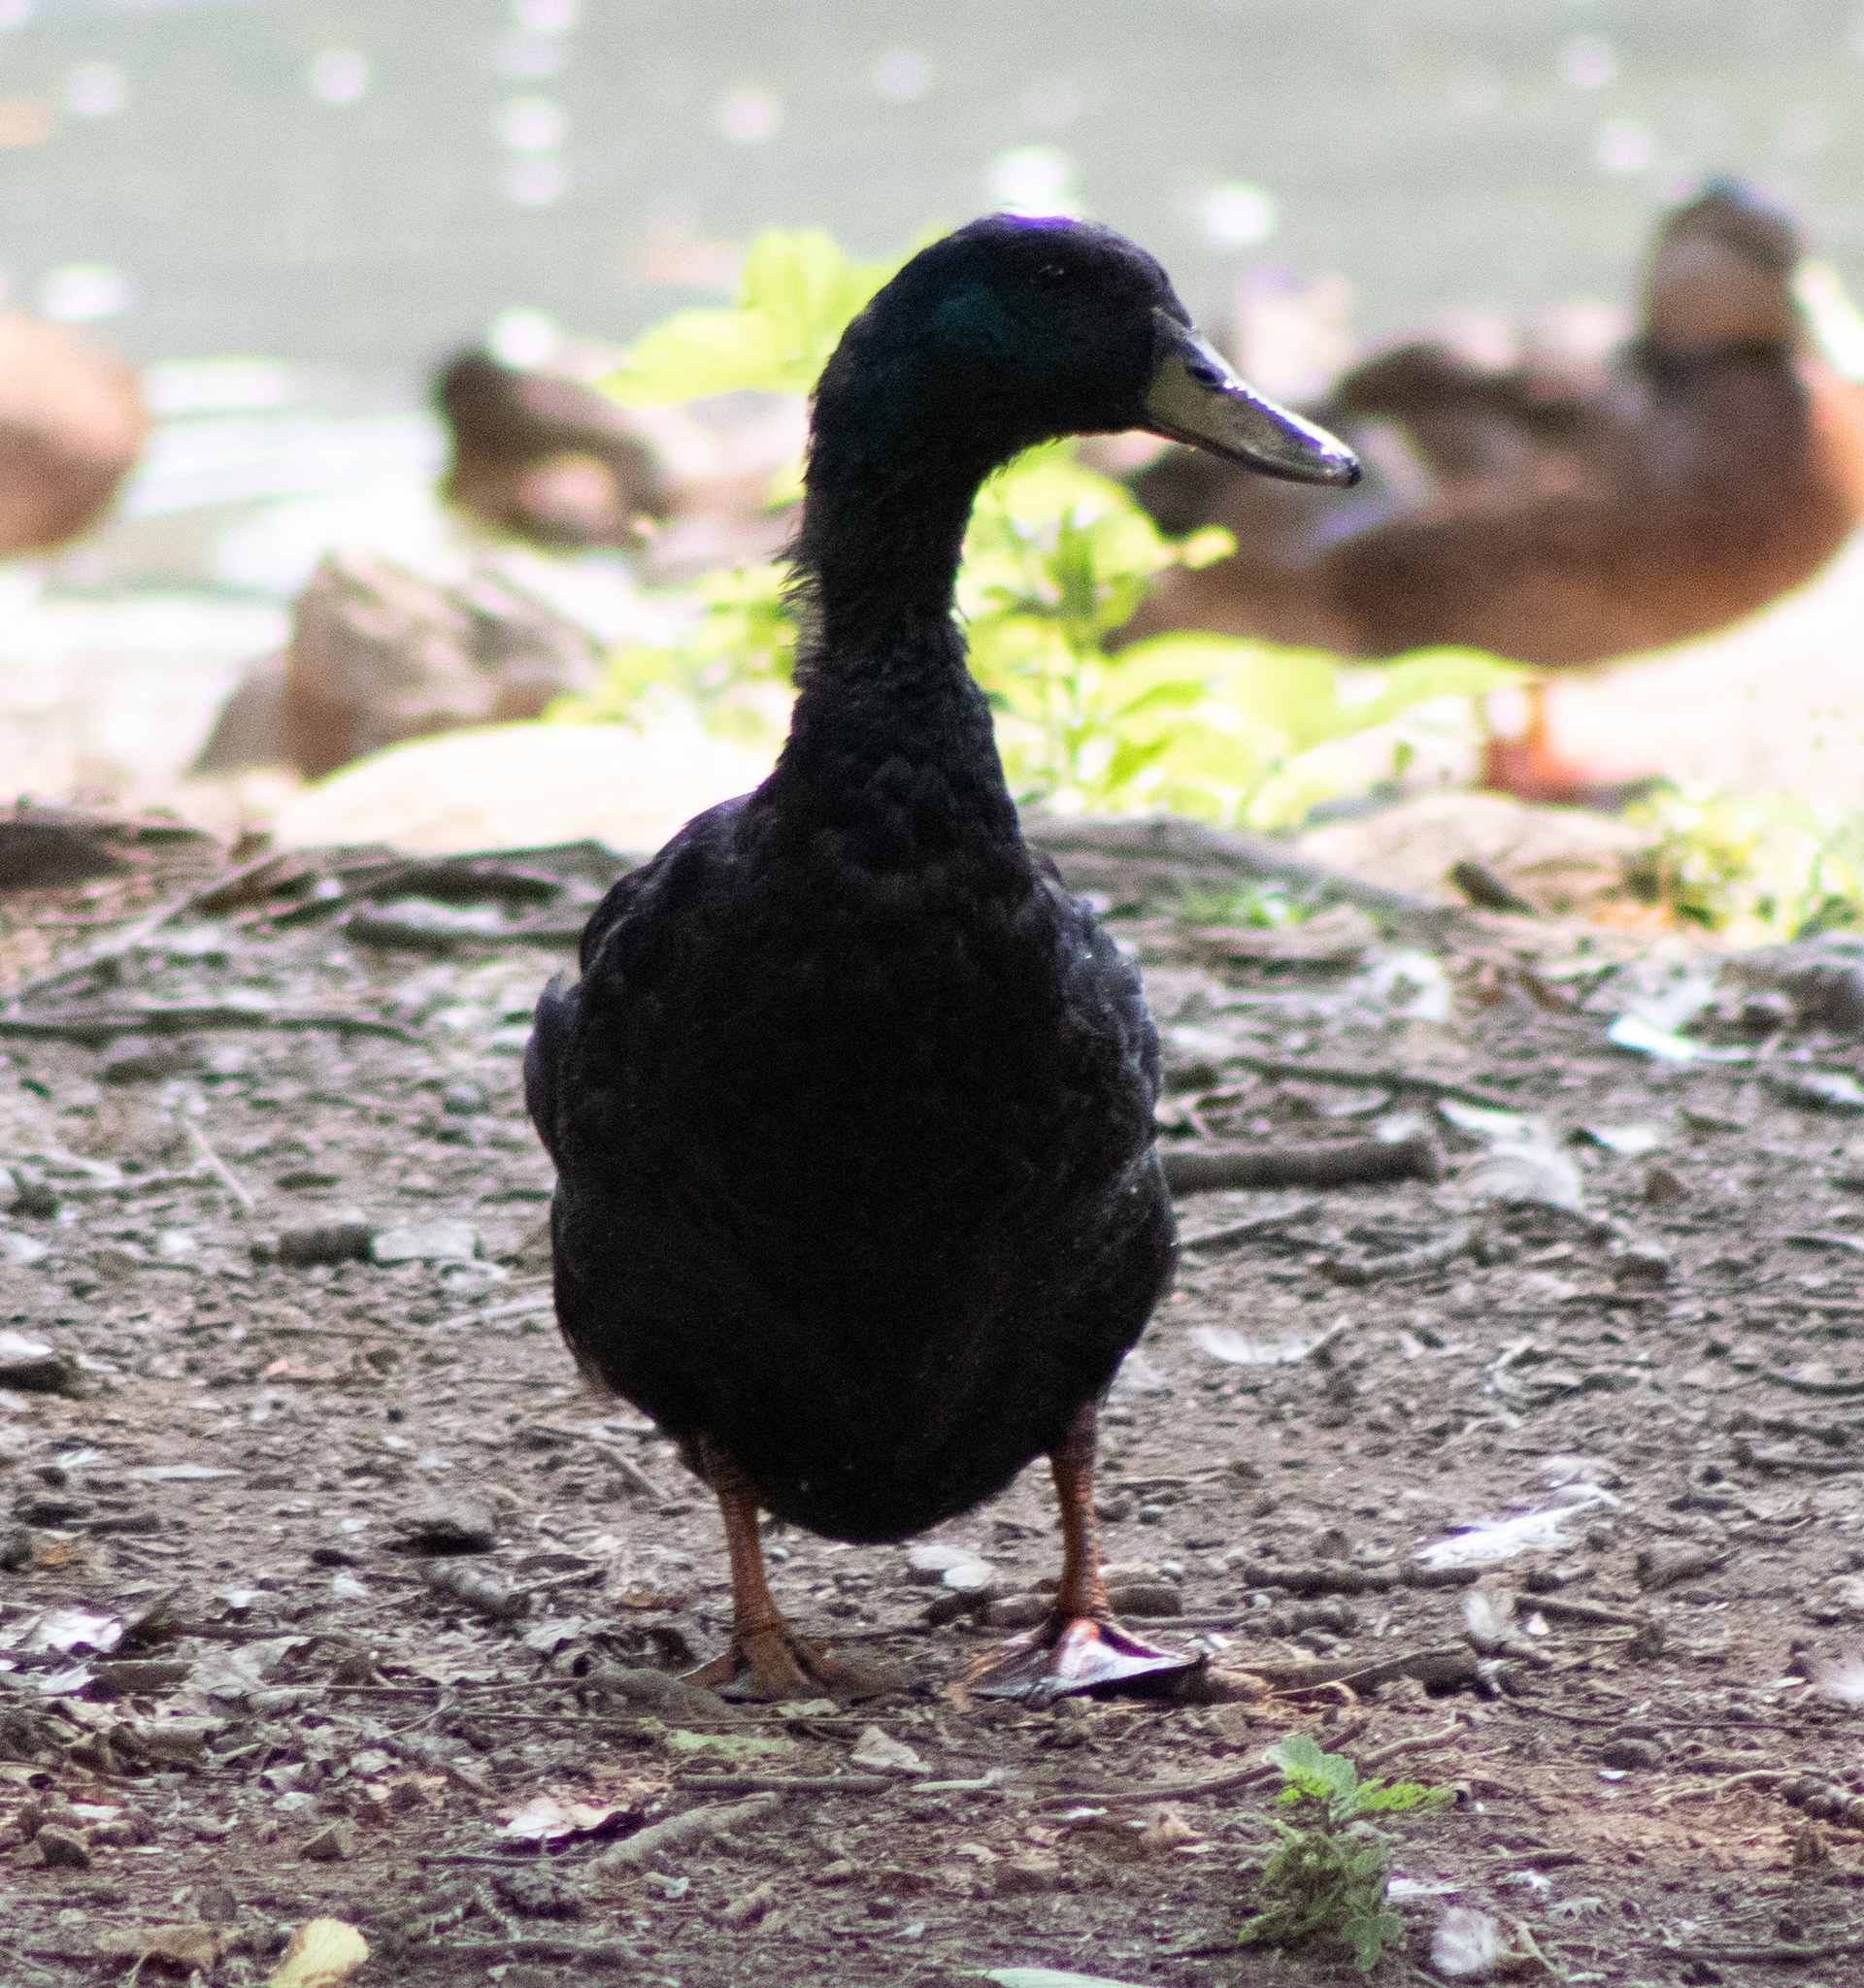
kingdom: Animalia
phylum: Chordata
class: Aves
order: Anseriformes
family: Anatidae
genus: Anas
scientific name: Anas platyrhynchos
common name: Mallard
